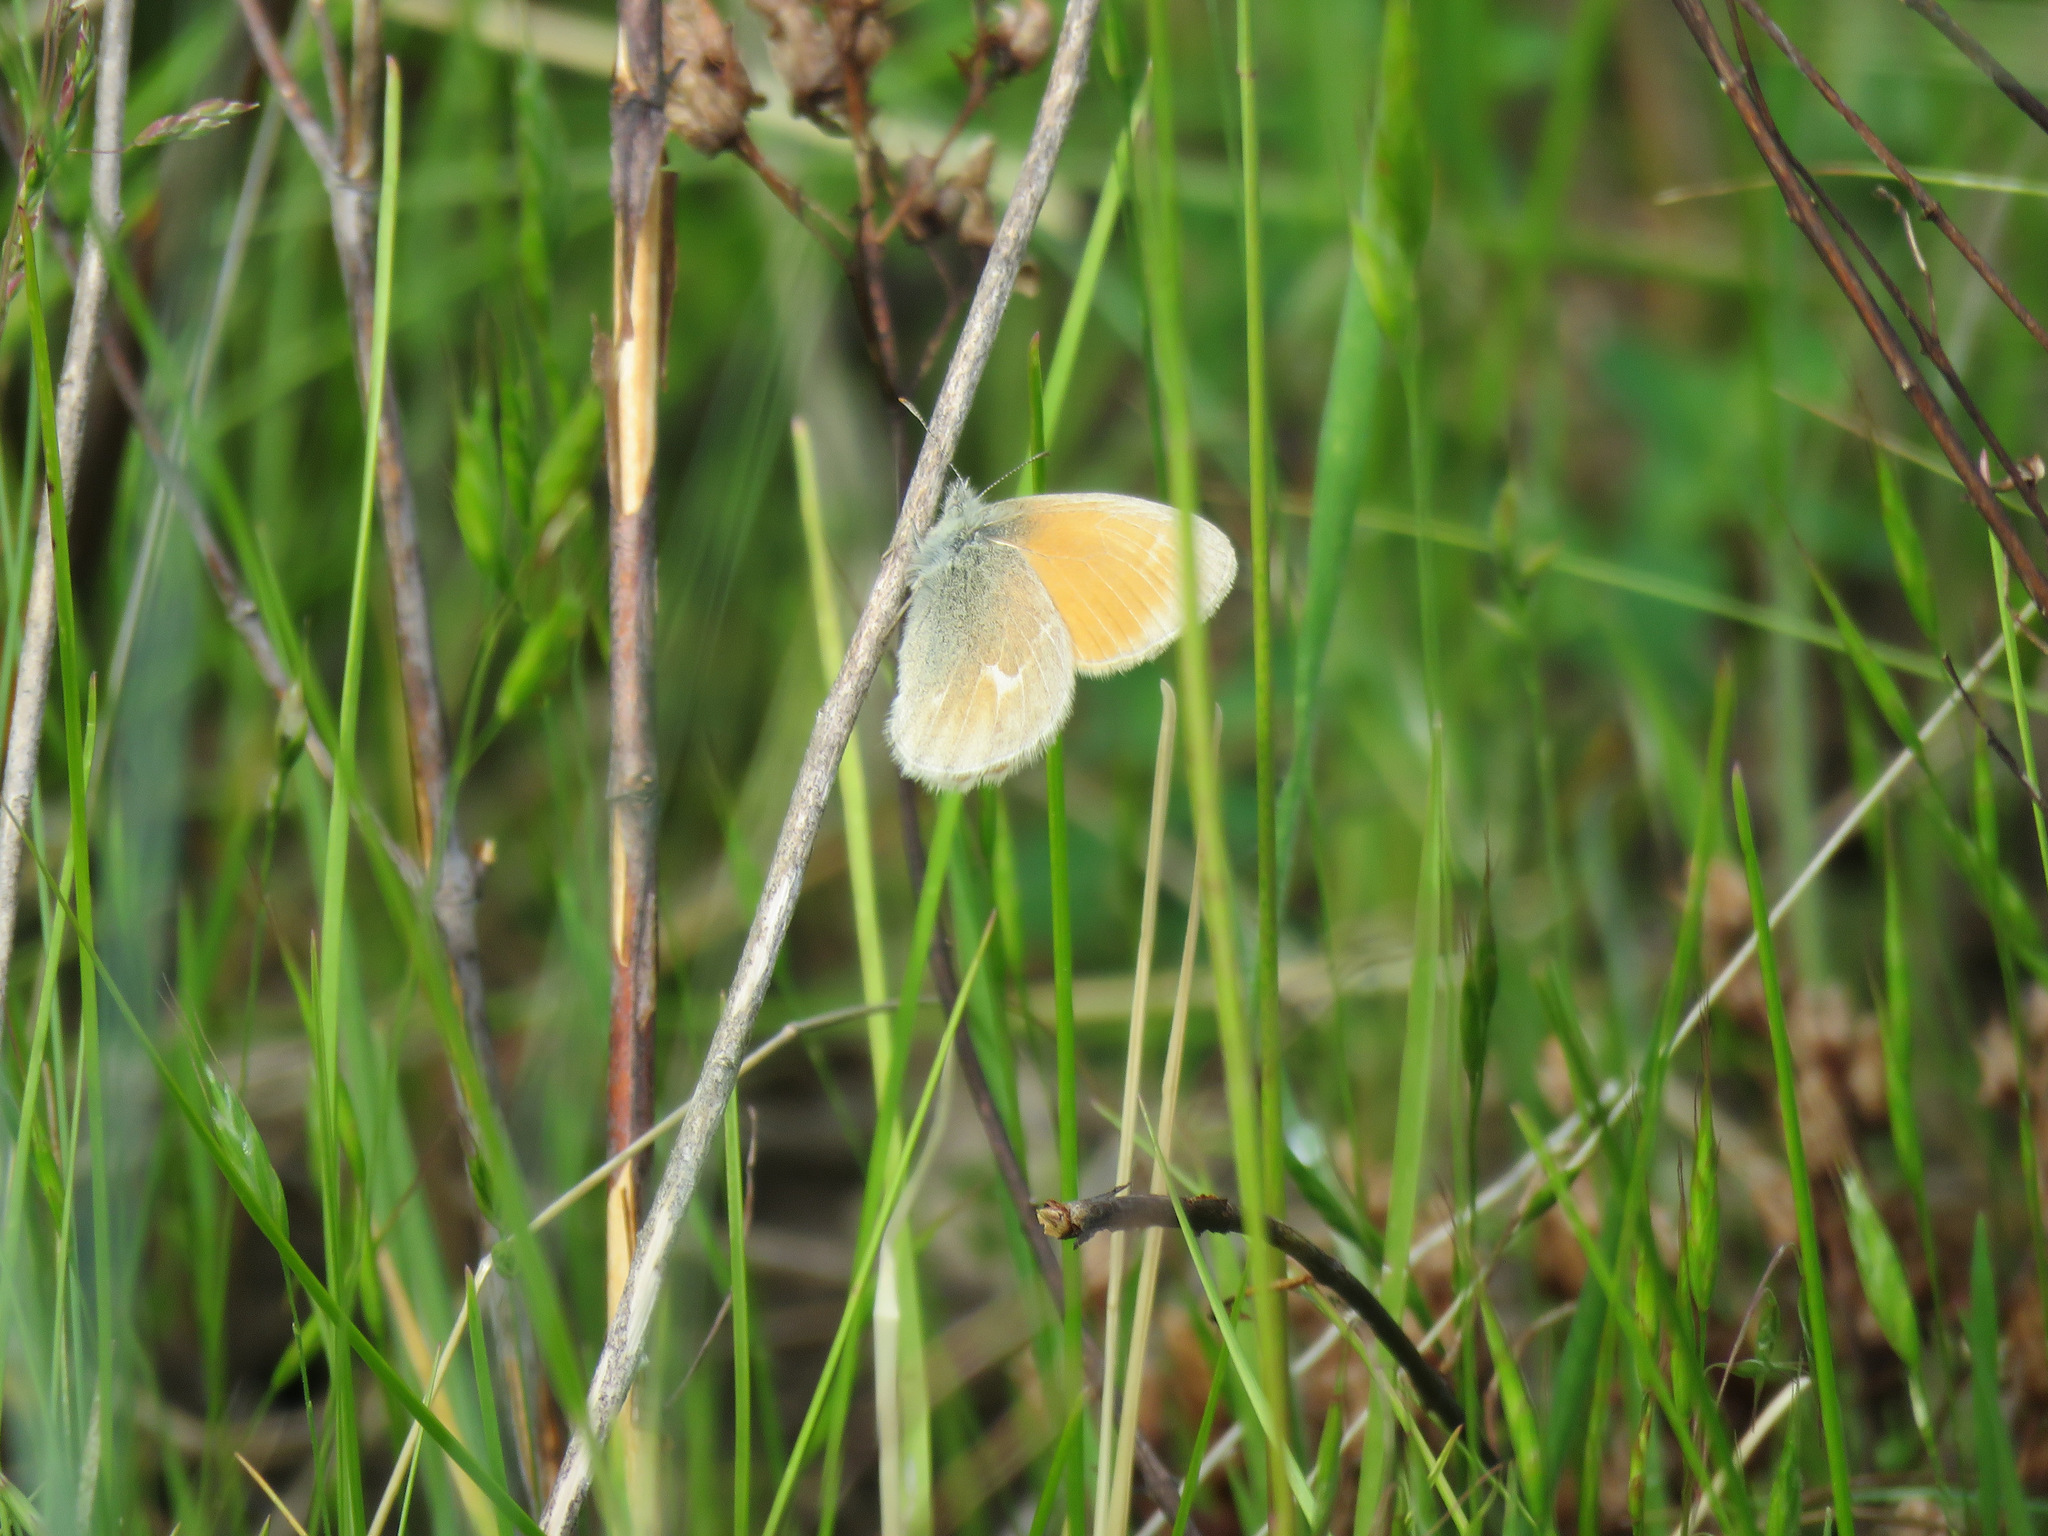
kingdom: Animalia
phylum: Arthropoda
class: Insecta
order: Lepidoptera
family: Nymphalidae
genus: Coenonympha
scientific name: Coenonympha california
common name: Common ringlet
